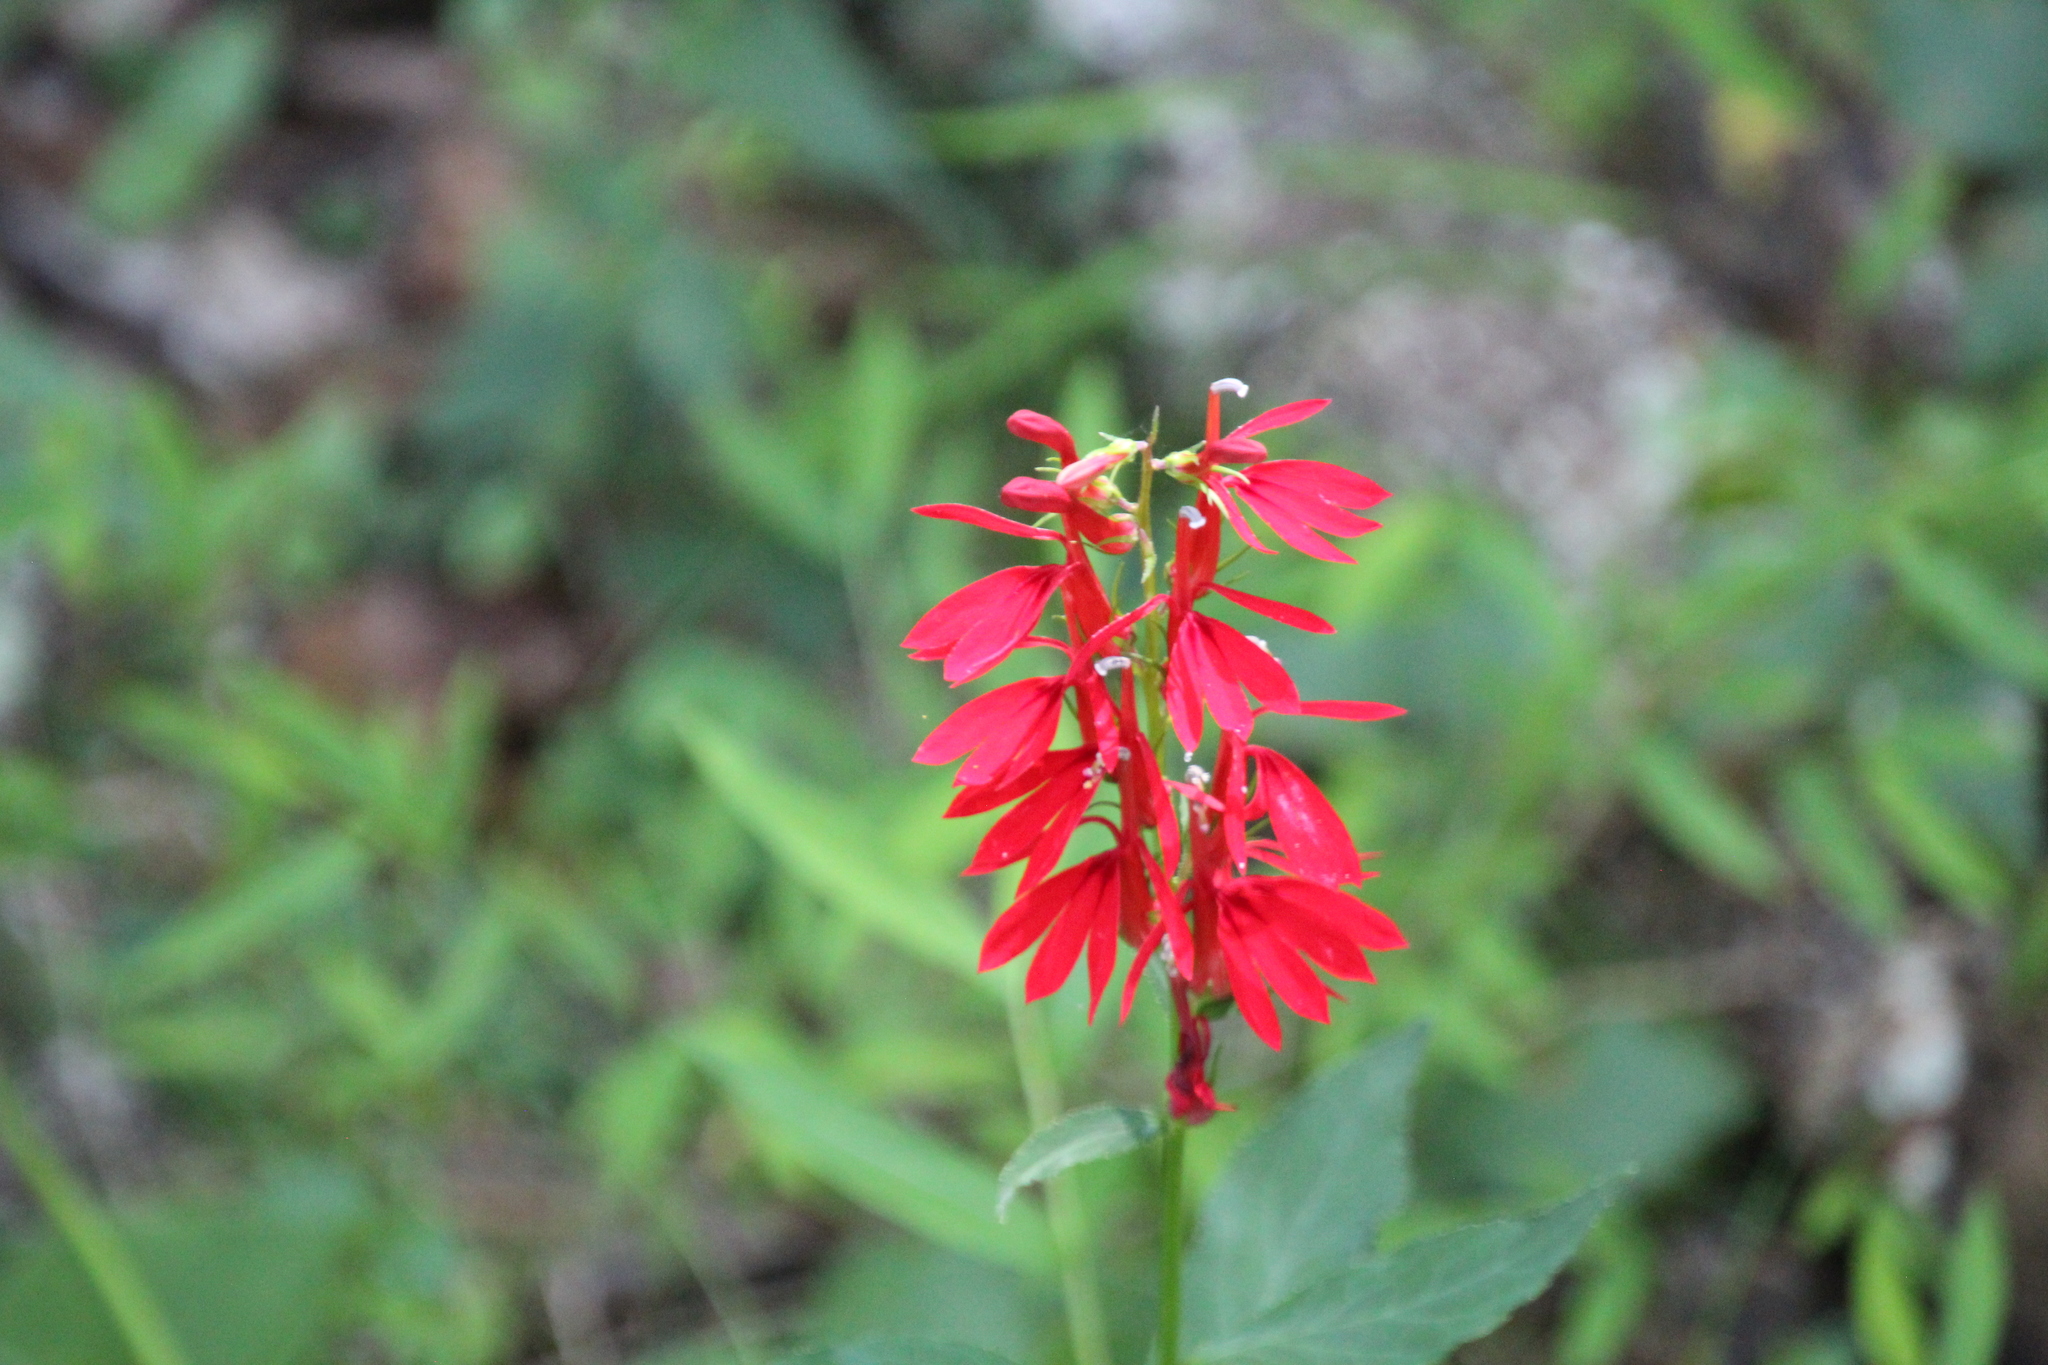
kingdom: Plantae
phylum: Tracheophyta
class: Magnoliopsida
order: Asterales
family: Campanulaceae
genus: Lobelia
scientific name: Lobelia cardinalis
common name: Cardinal flower
